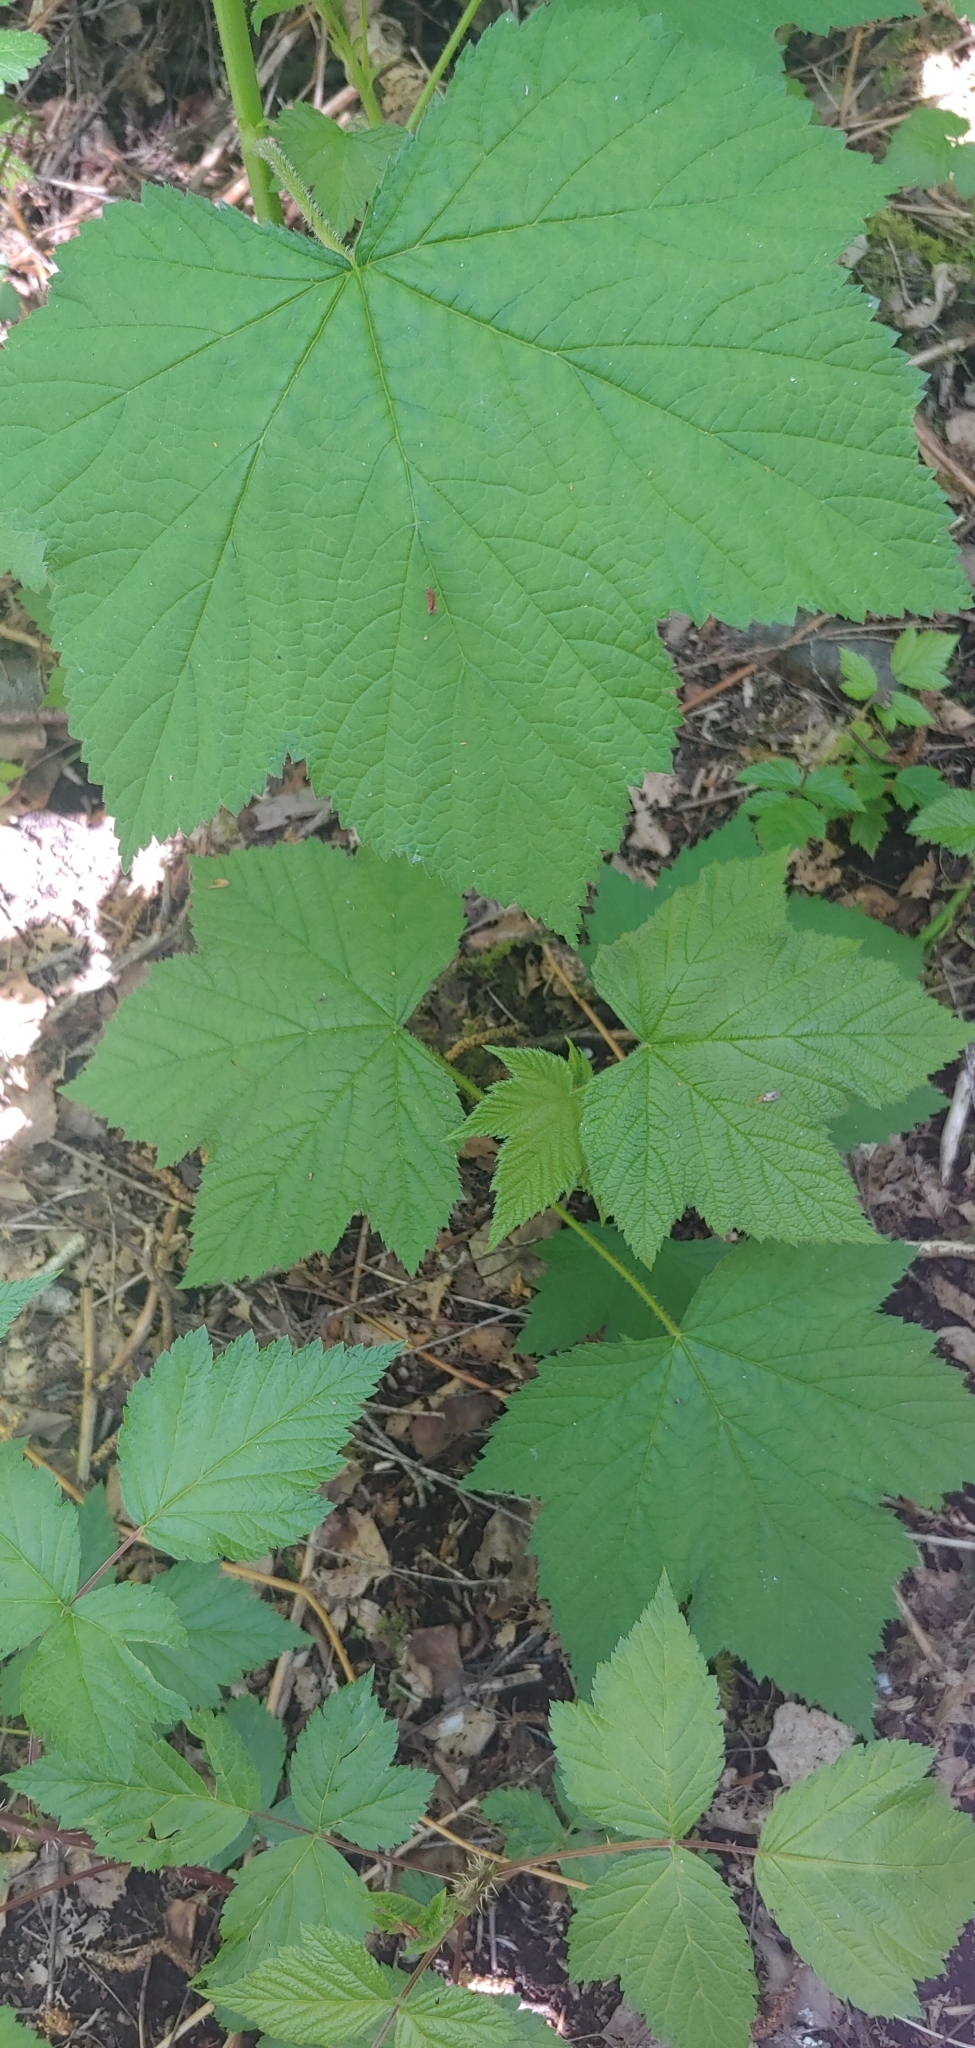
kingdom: Plantae
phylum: Tracheophyta
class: Magnoliopsida
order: Rosales
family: Rosaceae
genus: Rubus
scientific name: Rubus parviflorus
